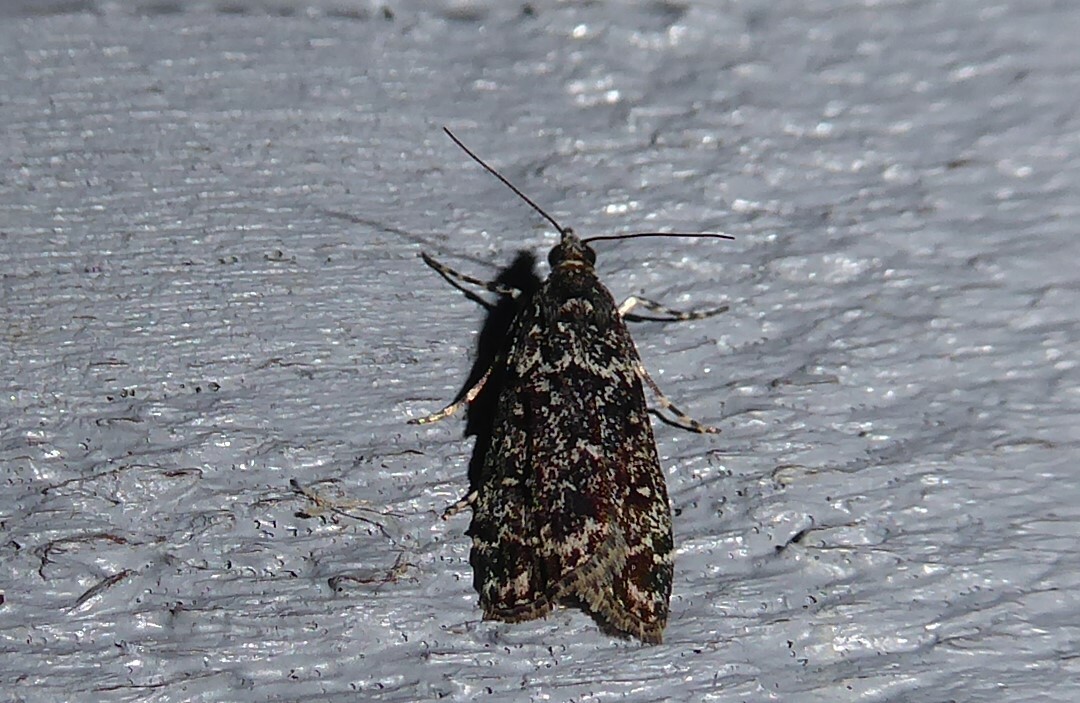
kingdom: Animalia
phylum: Arthropoda
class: Insecta
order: Lepidoptera
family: Crambidae
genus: Eudonia
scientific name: Eudonia philerga
